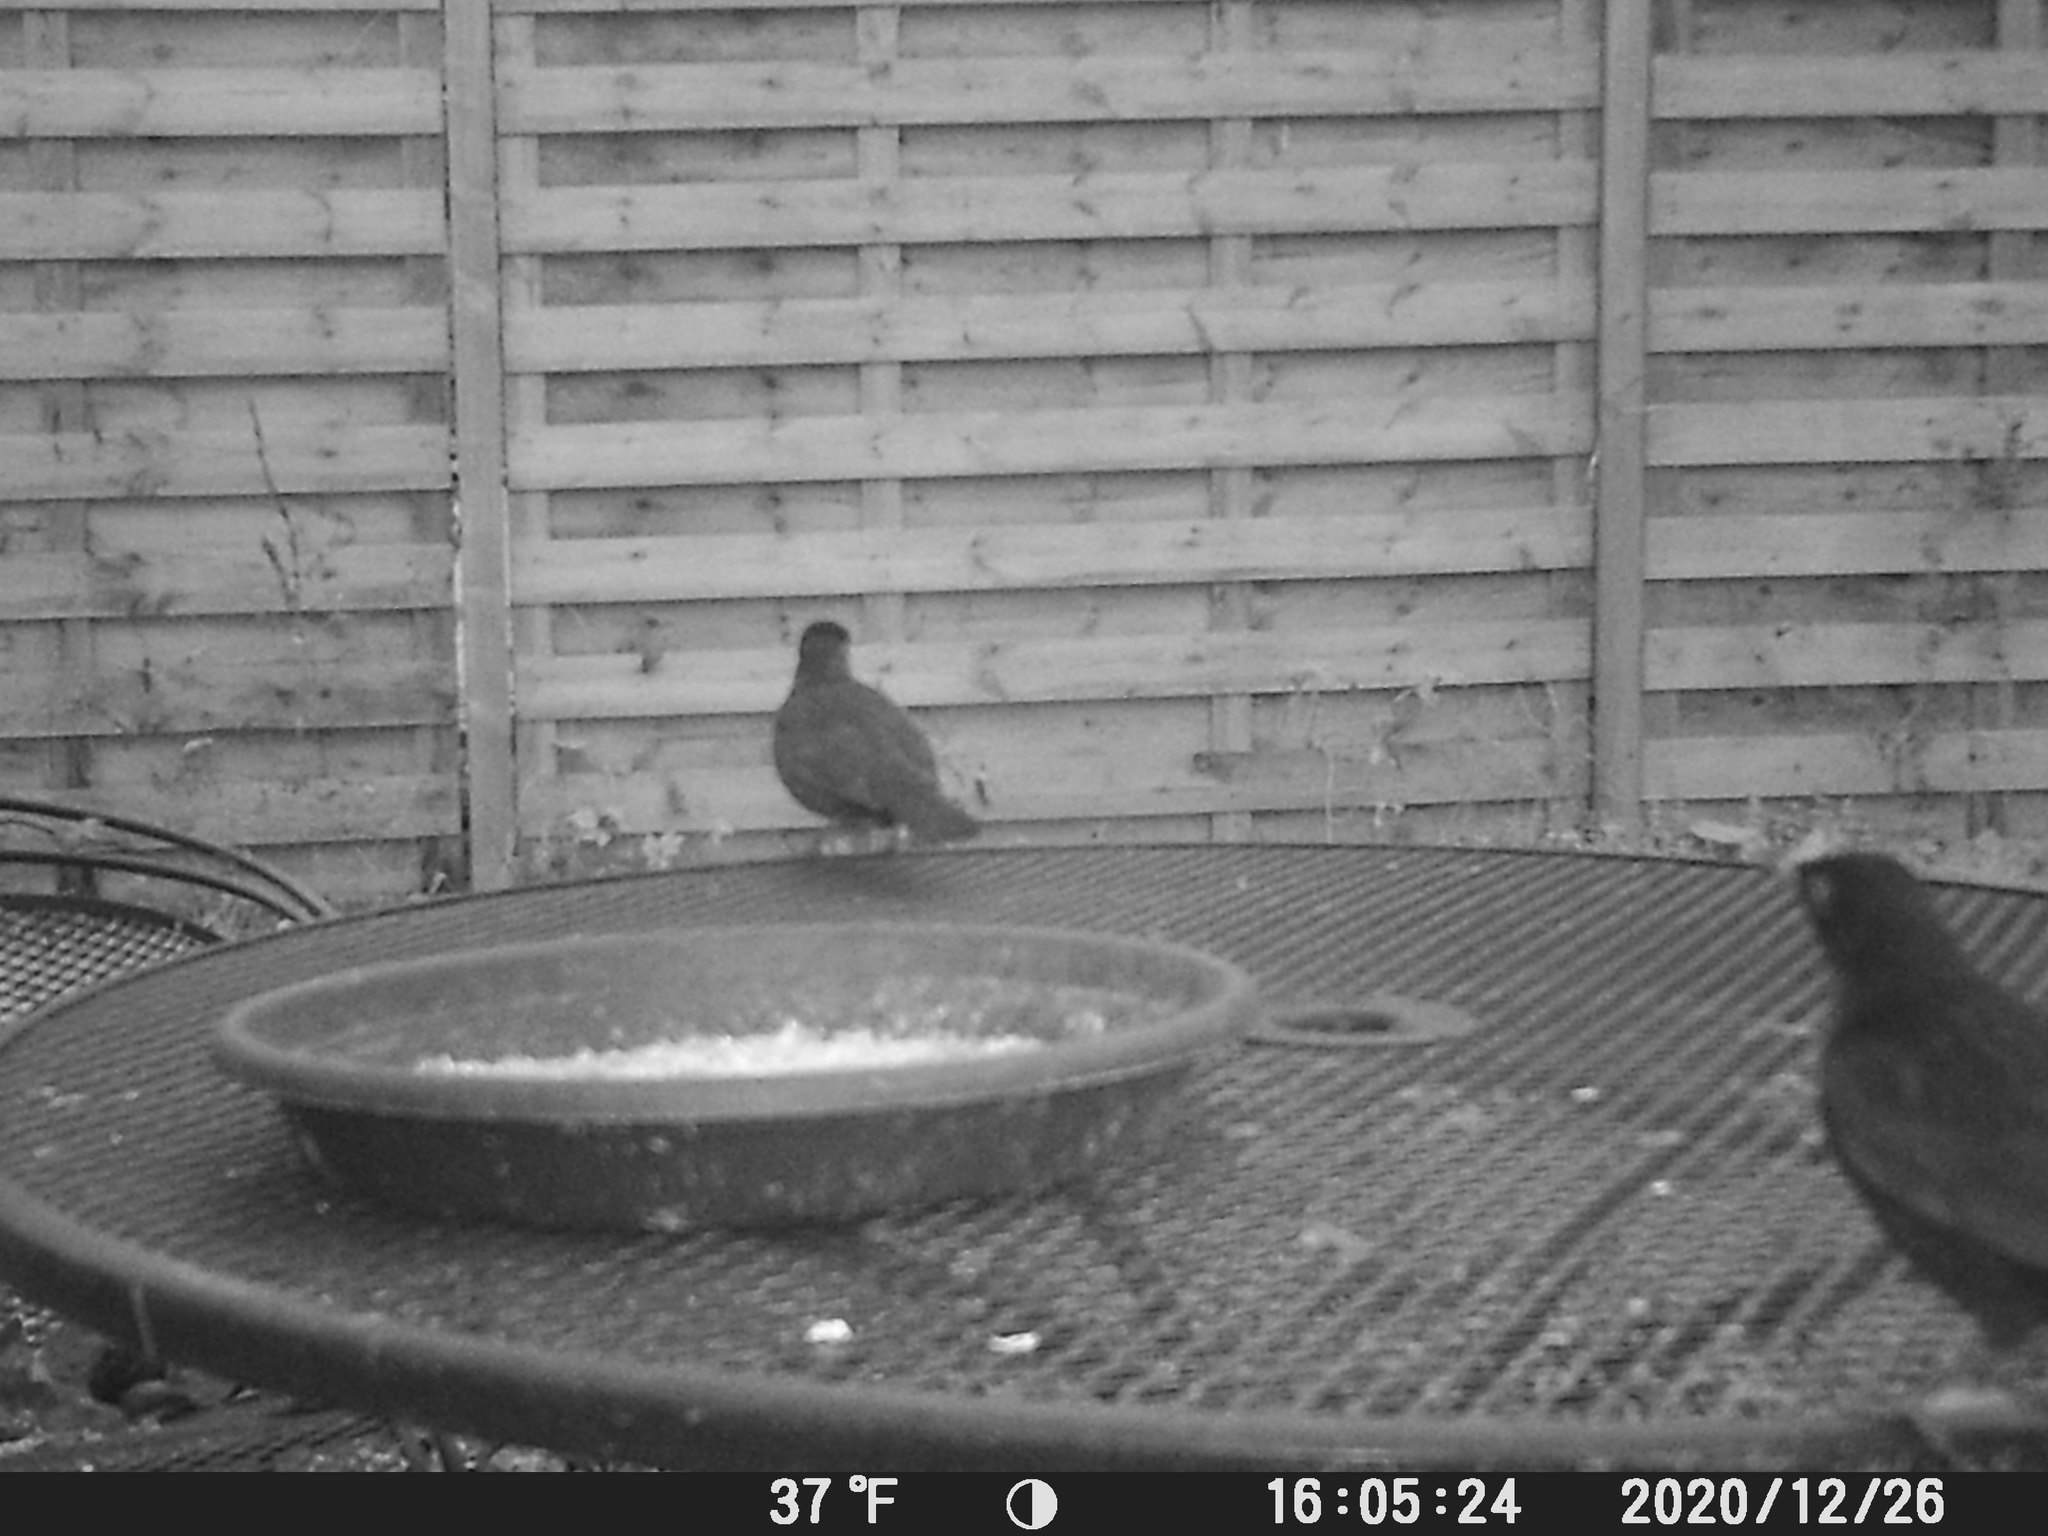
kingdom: Animalia
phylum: Chordata
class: Aves
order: Passeriformes
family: Turdidae
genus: Turdus
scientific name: Turdus merula
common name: Common blackbird
